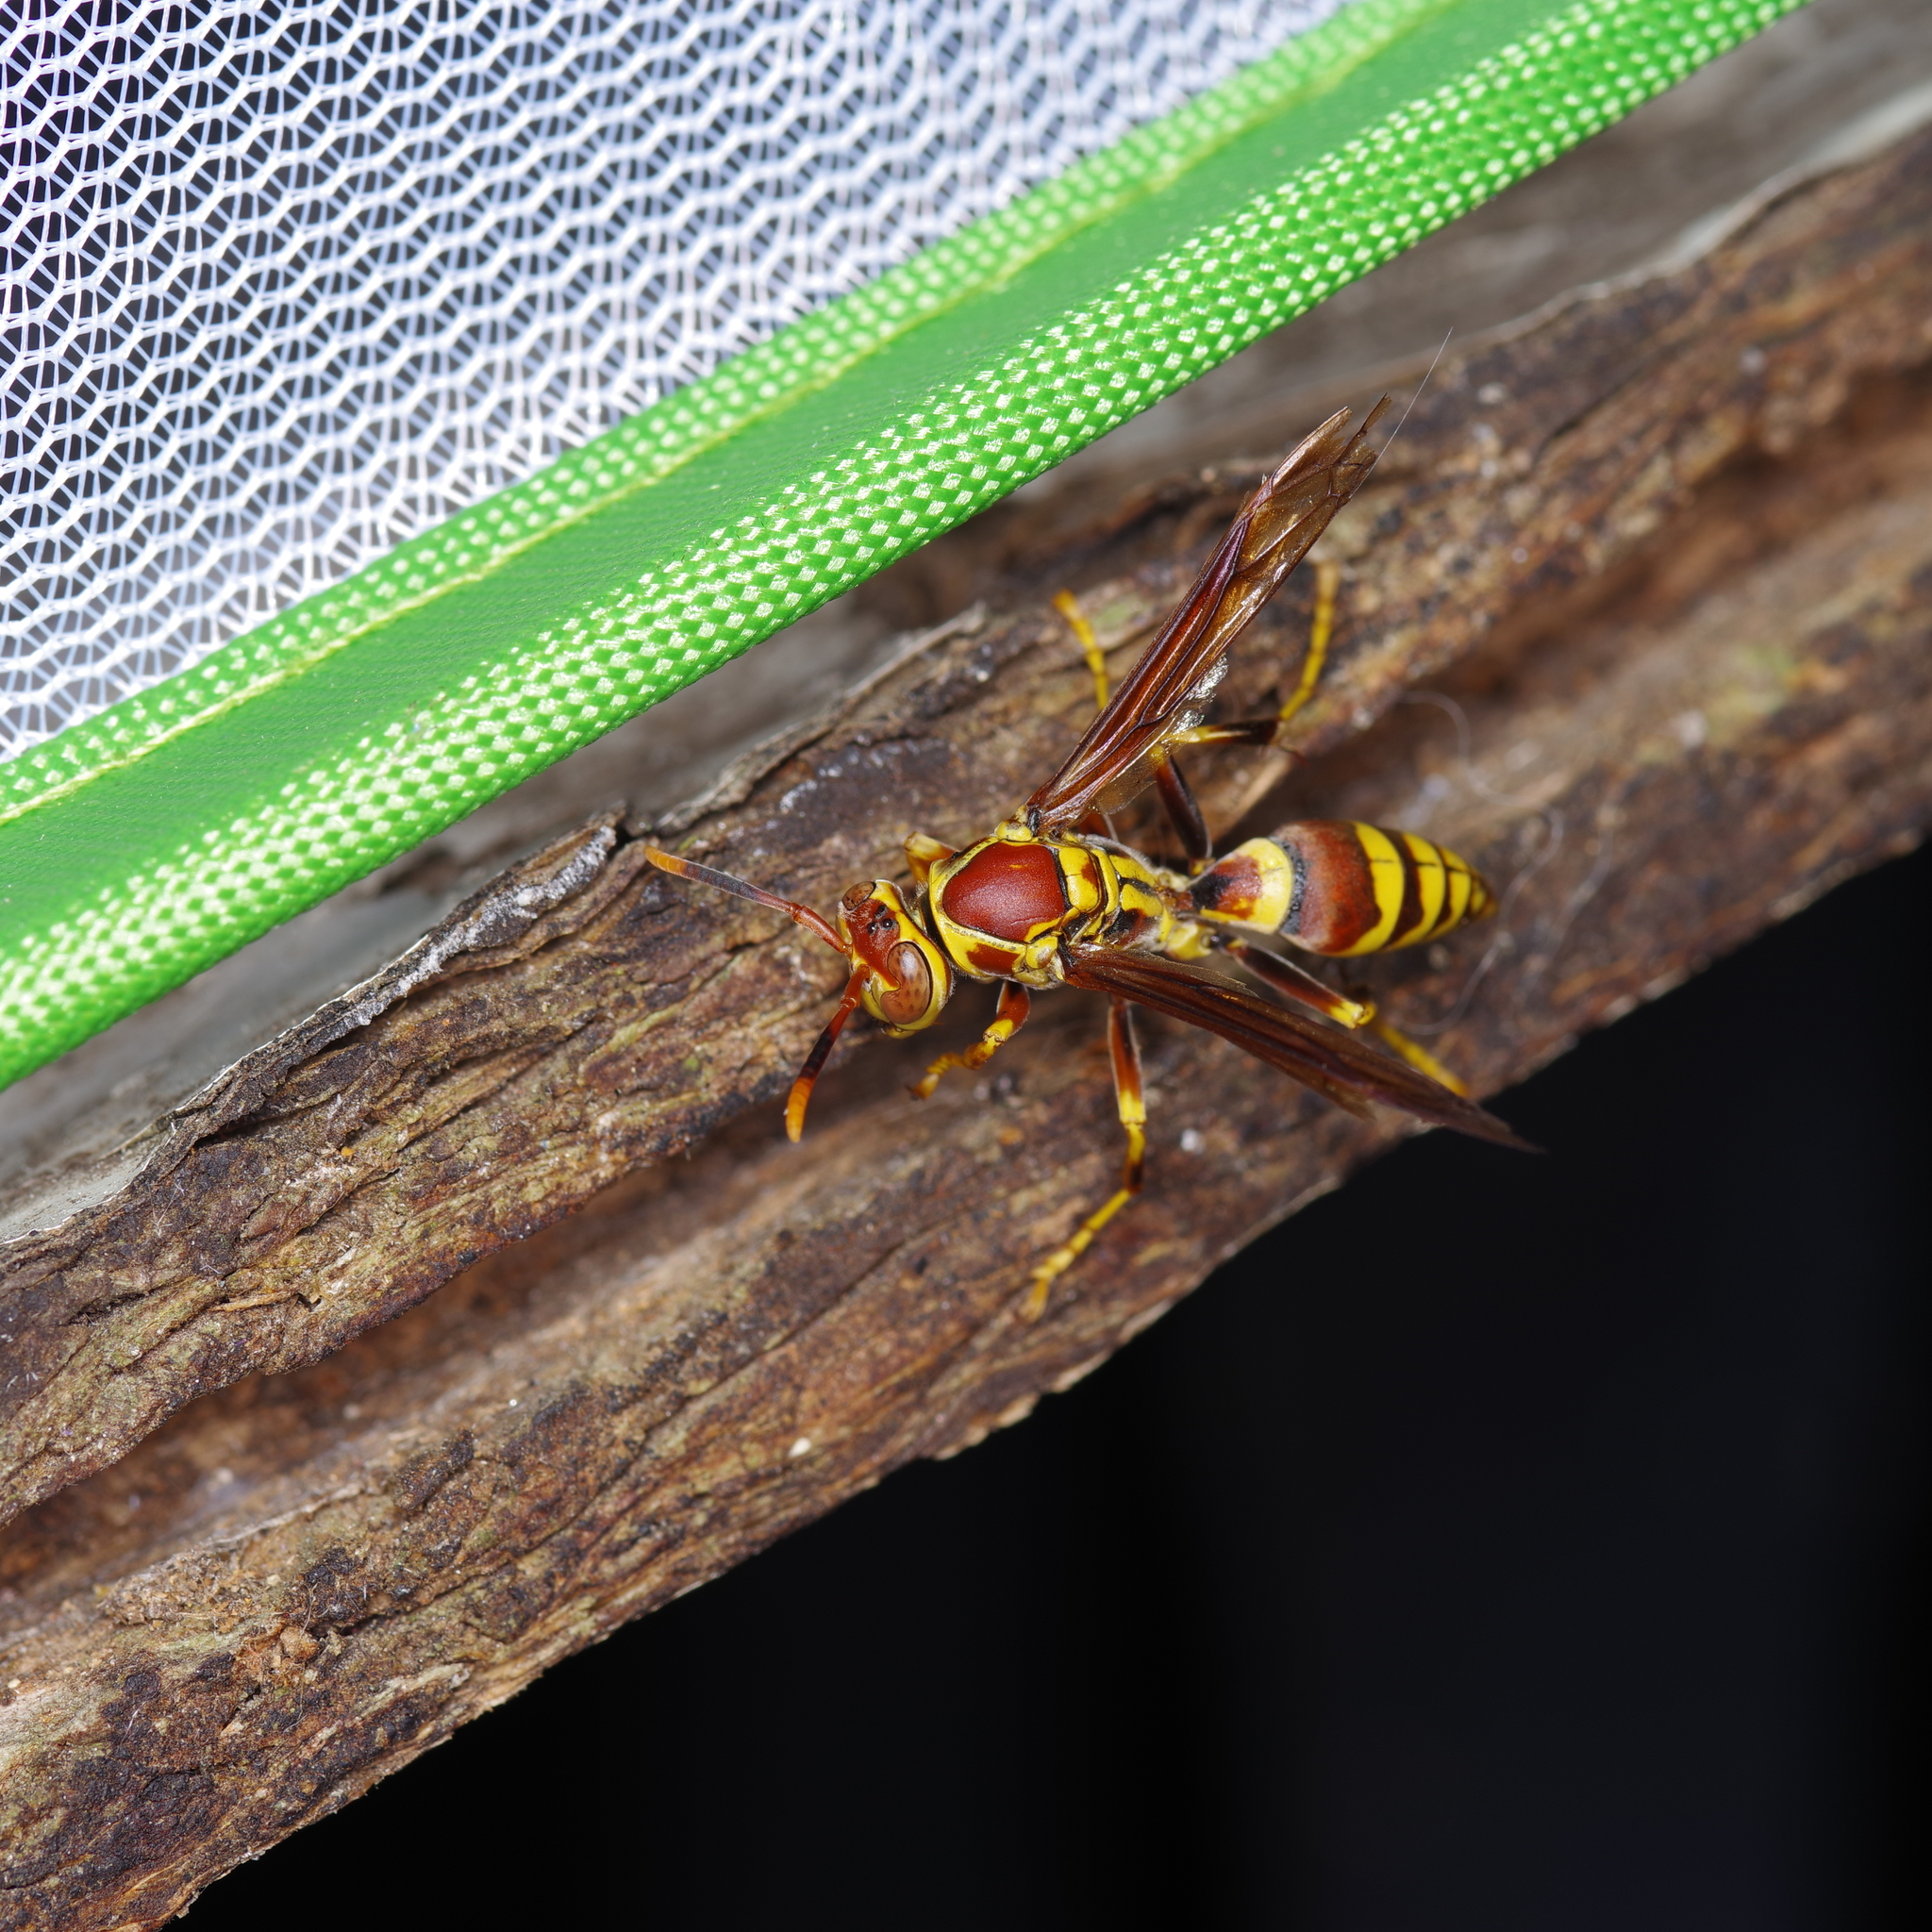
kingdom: Animalia
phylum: Arthropoda
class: Insecta
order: Hymenoptera
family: Eumenidae
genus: Polistes
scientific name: Polistes exclamans
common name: Paper wasp
